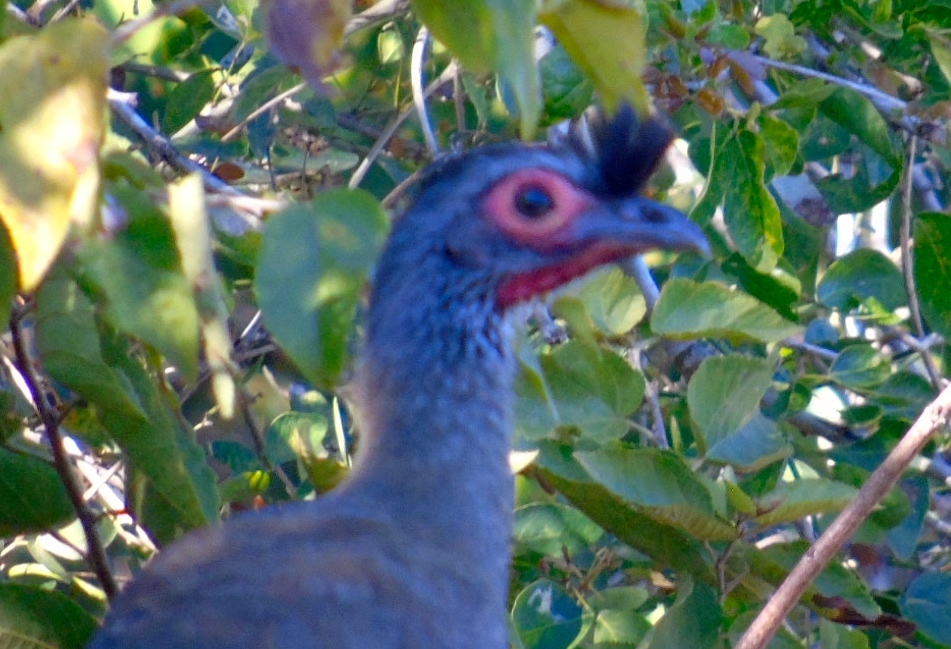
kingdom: Animalia
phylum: Chordata
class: Aves
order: Galliformes
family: Cracidae
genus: Ortalis
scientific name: Ortalis wagleri
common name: Rufous-bellied chachalaca
